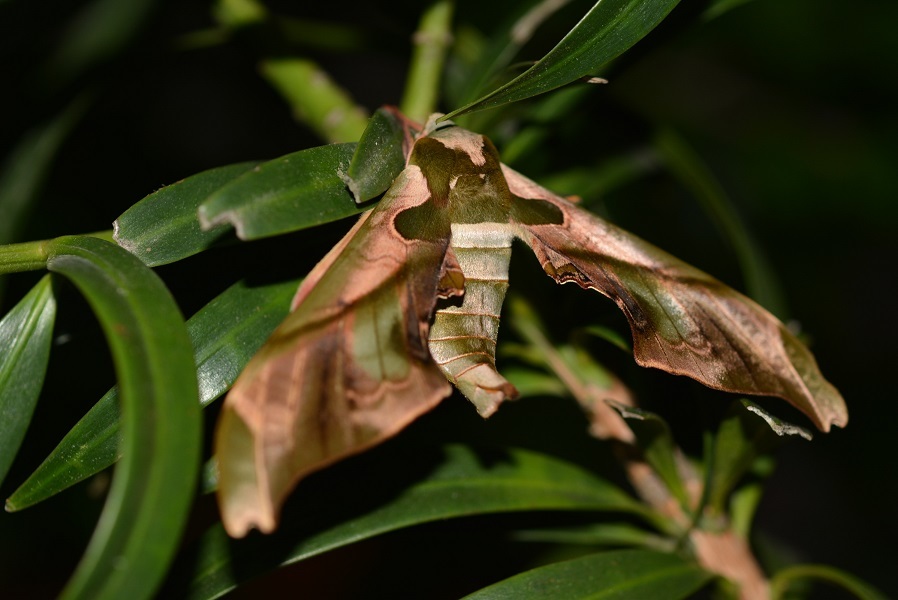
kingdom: Animalia
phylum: Arthropoda
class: Insecta
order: Lepidoptera
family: Sphingidae
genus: Adhemarius
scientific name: Adhemarius globifer
